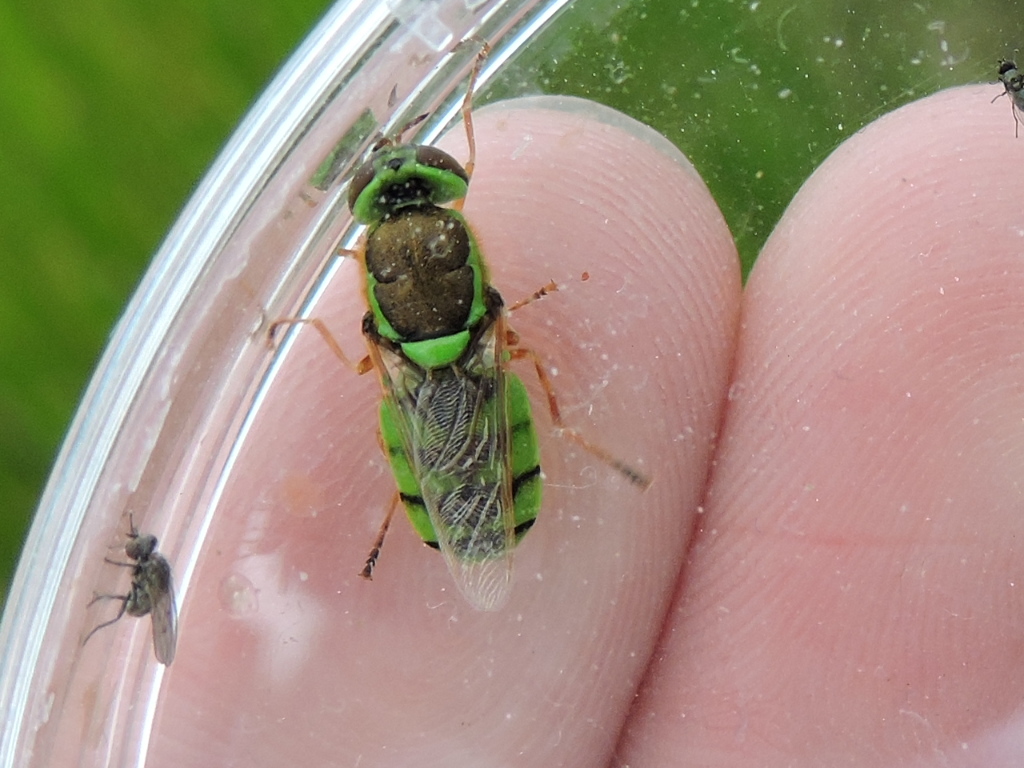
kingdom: Animalia
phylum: Arthropoda
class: Insecta
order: Diptera
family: Stratiomyidae
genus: Odontomyia
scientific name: Odontomyia cincta
